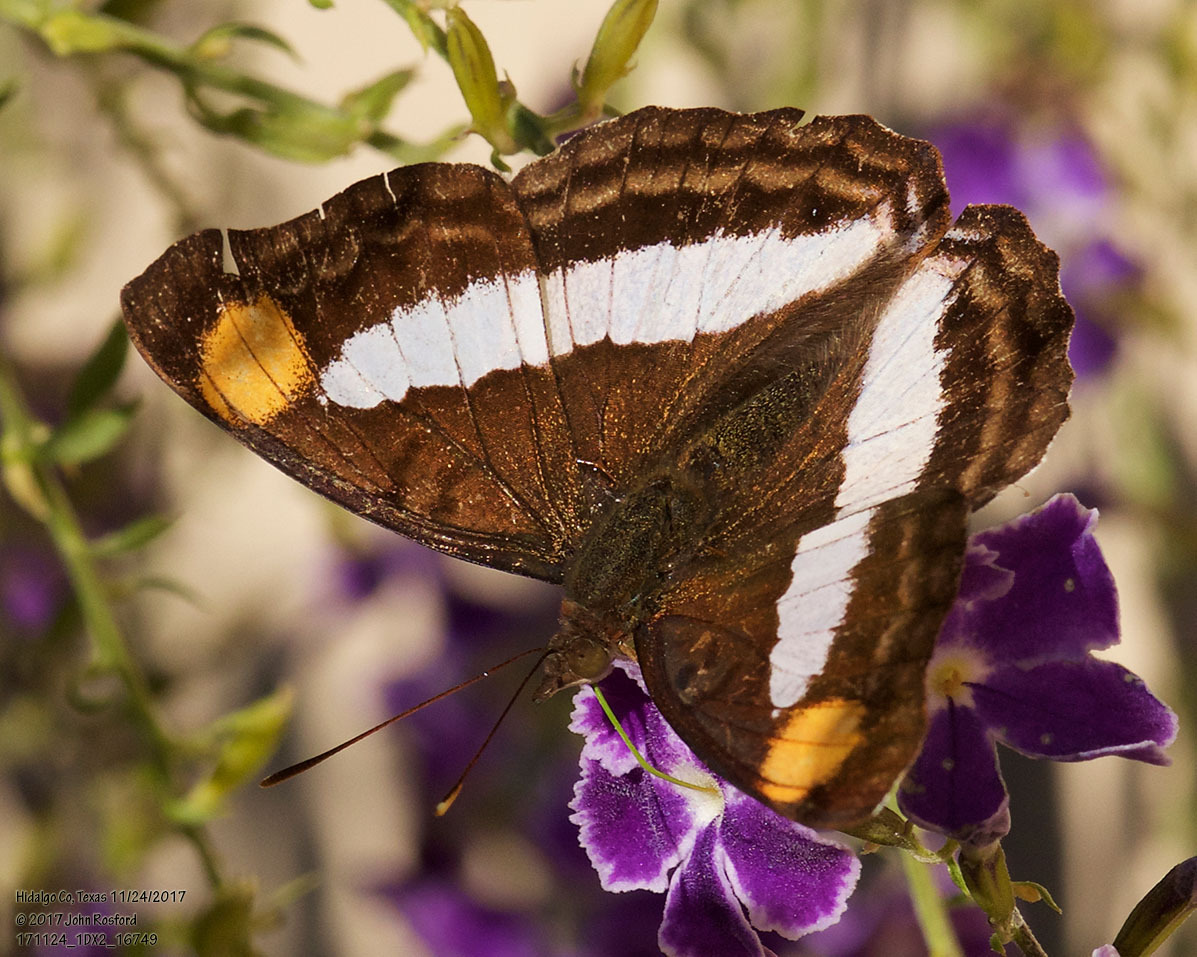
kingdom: Animalia
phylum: Arthropoda
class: Insecta
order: Lepidoptera
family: Nymphalidae
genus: Doxocopa
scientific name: Doxocopa pavon
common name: Pavon emperor
